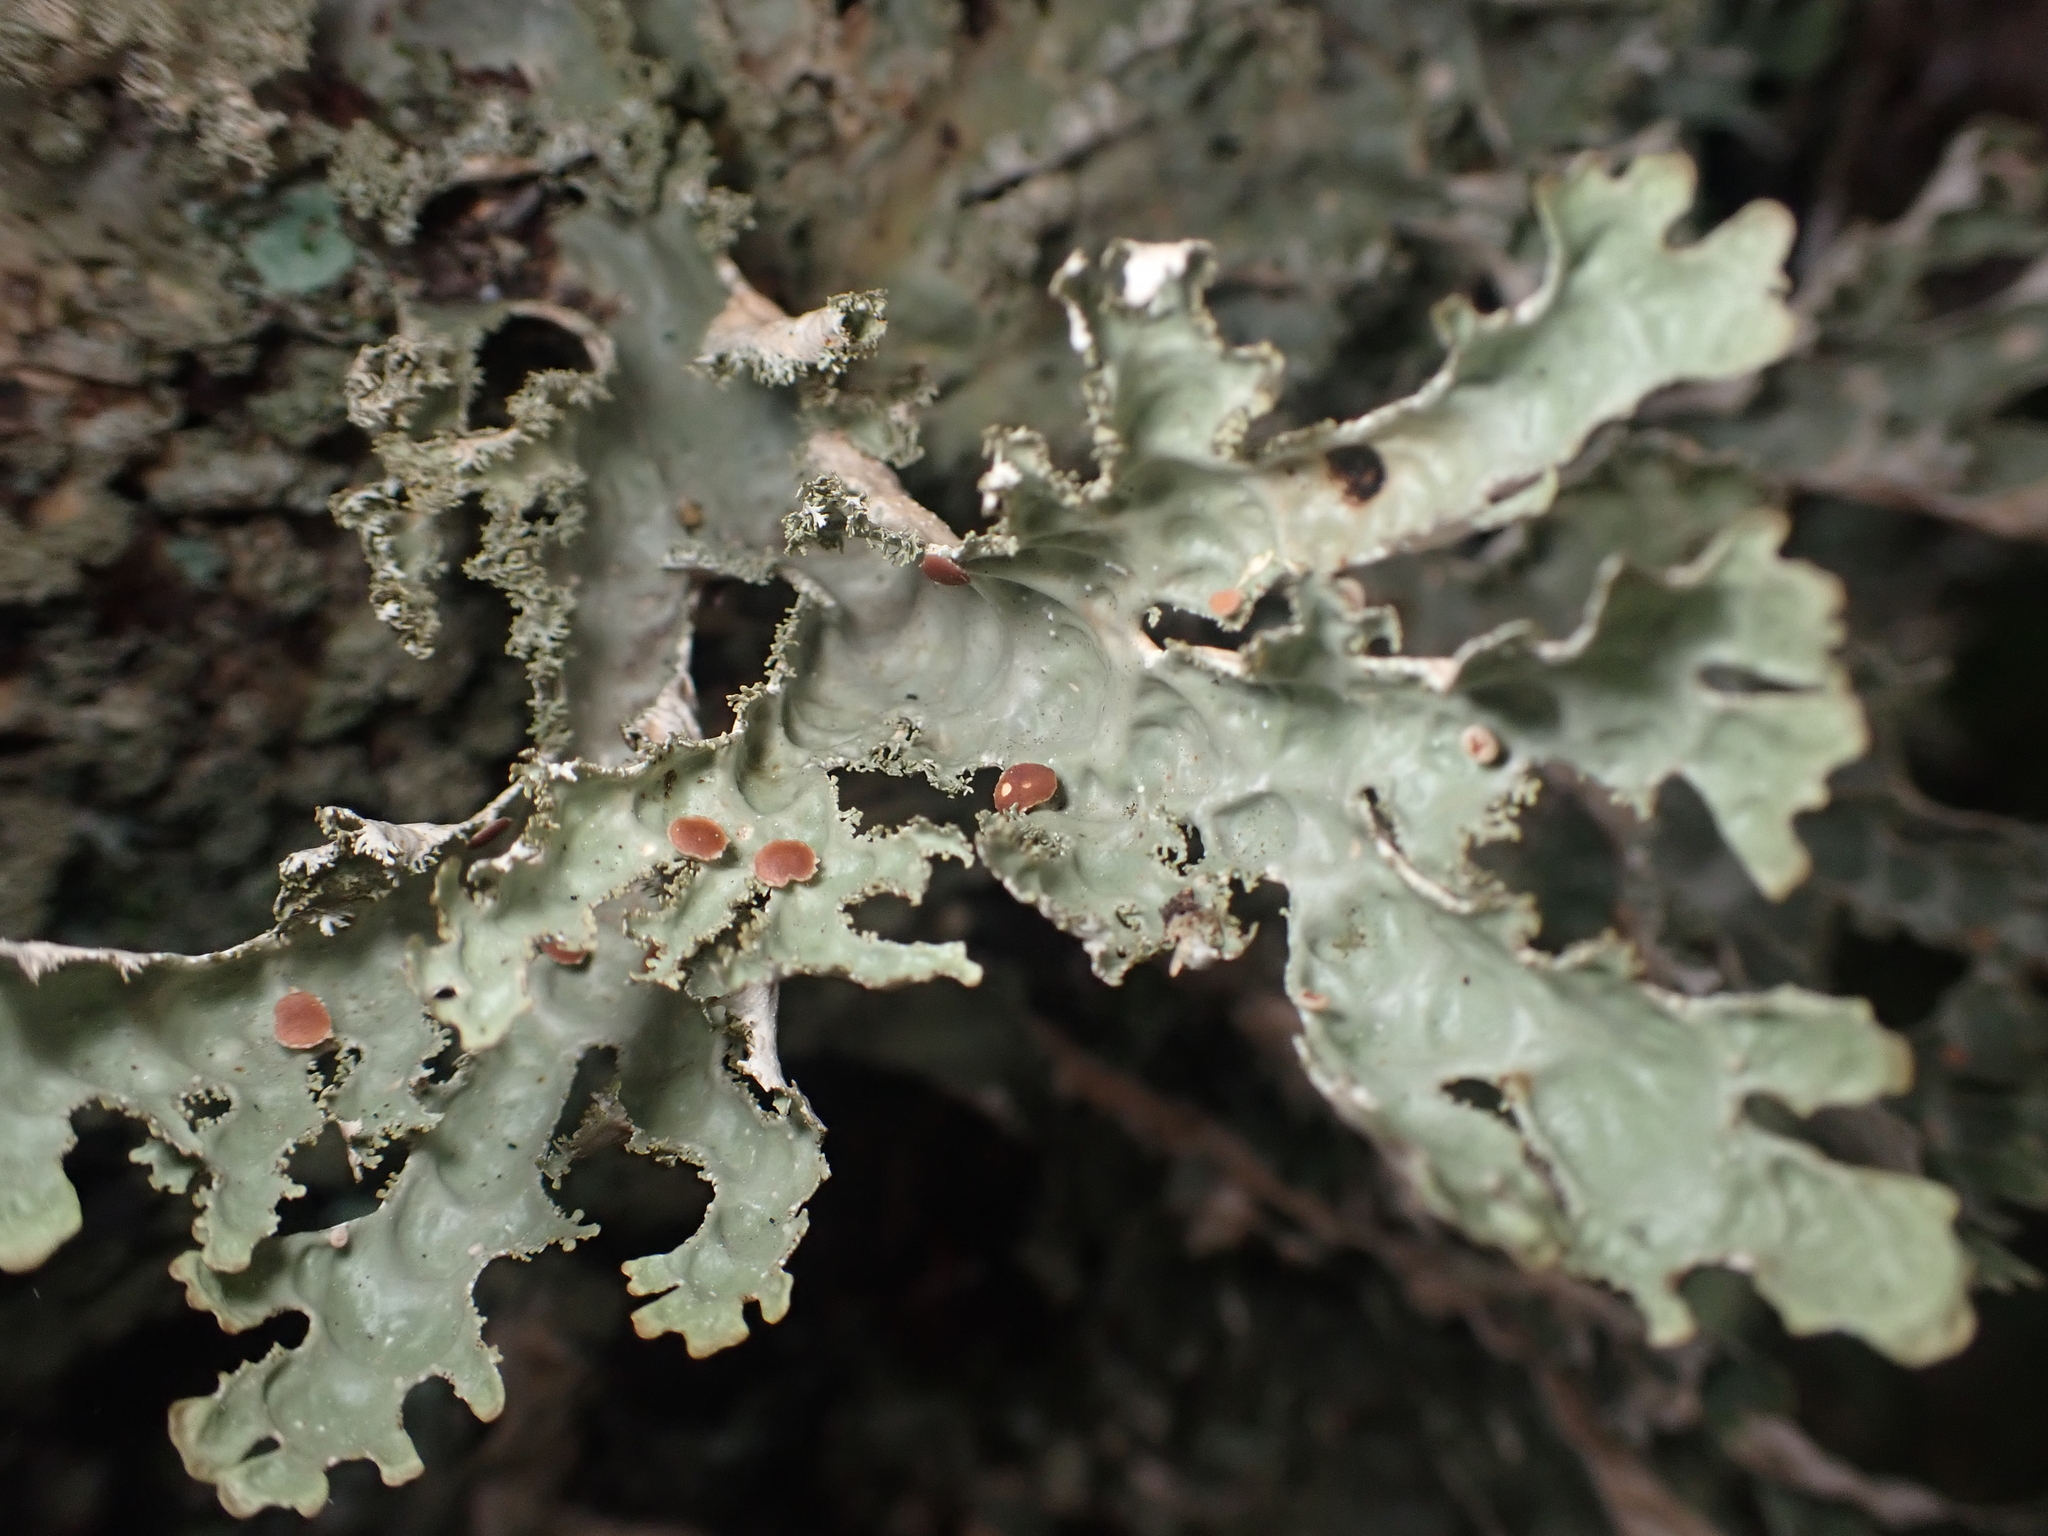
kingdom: Fungi
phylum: Ascomycota
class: Lecanoromycetes
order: Peltigerales
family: Lobariaceae
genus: Pseudocyphellaria
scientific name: Pseudocyphellaria chloroleuca
